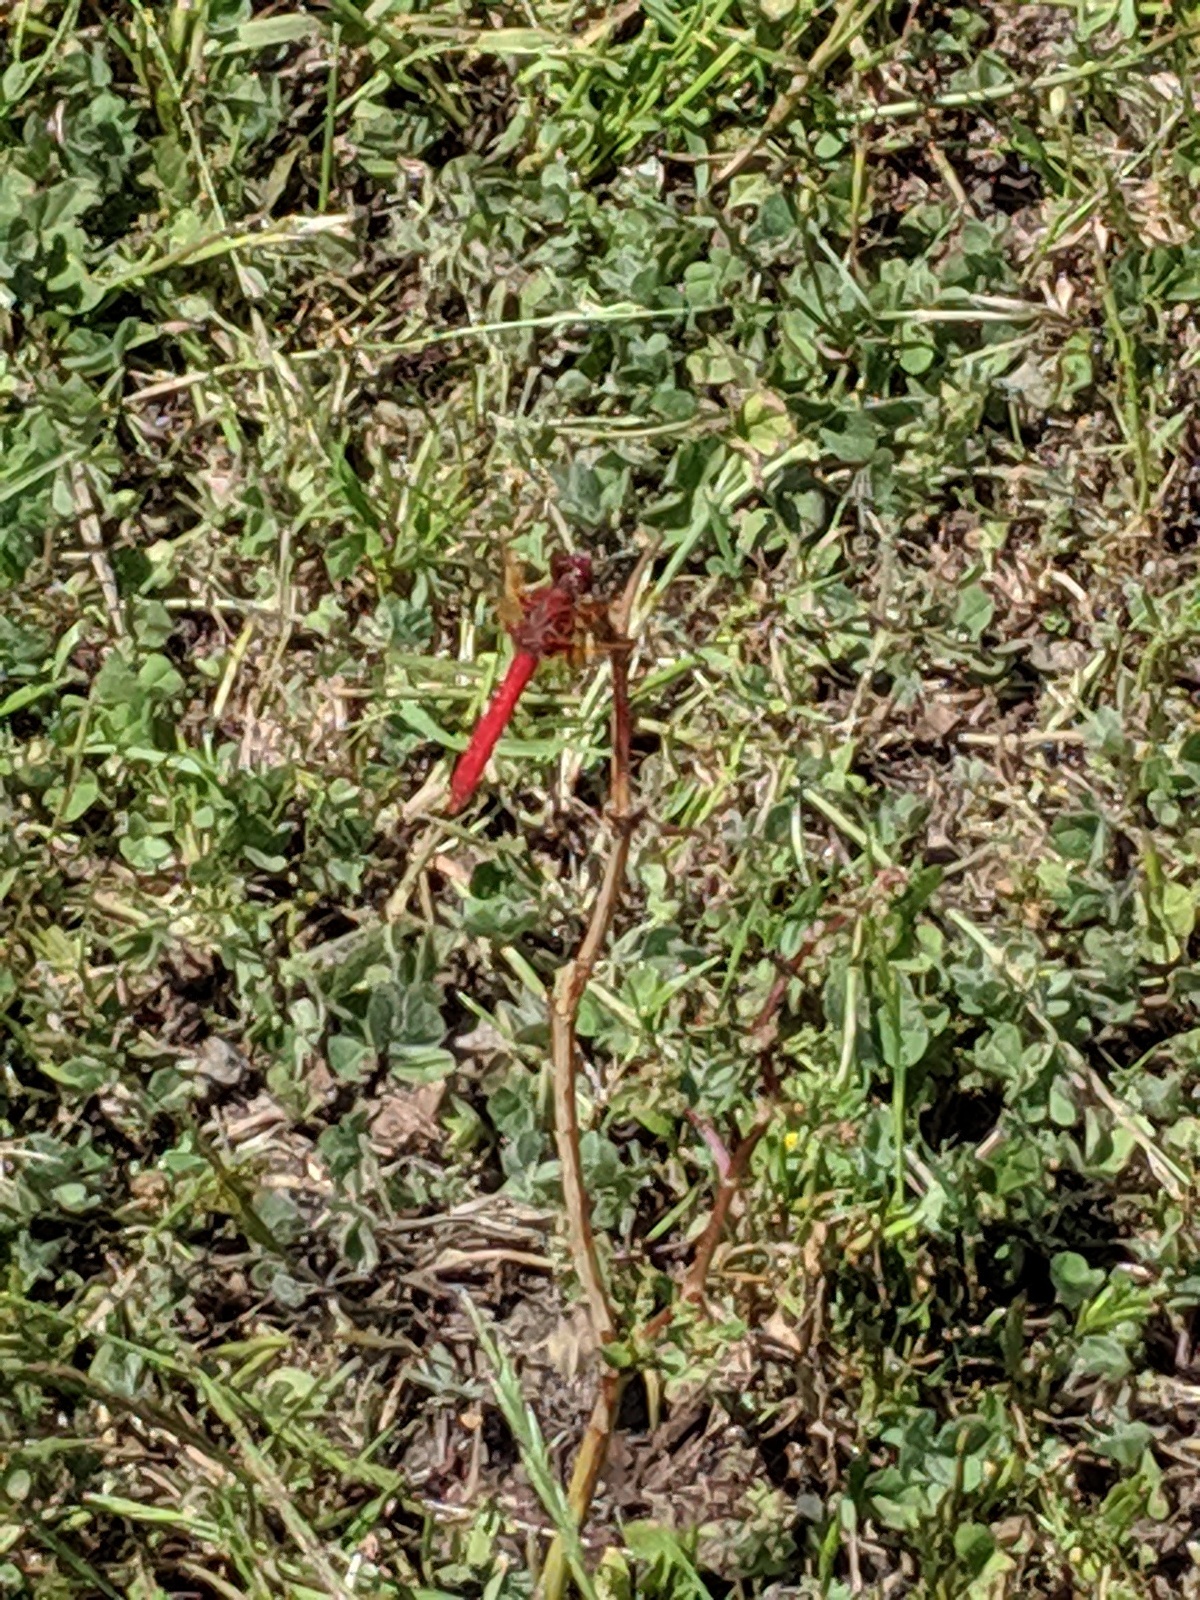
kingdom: Animalia
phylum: Arthropoda
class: Insecta
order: Odonata
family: Libellulidae
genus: Sympetrum
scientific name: Sympetrum illotum
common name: Cardinal meadowhawk
